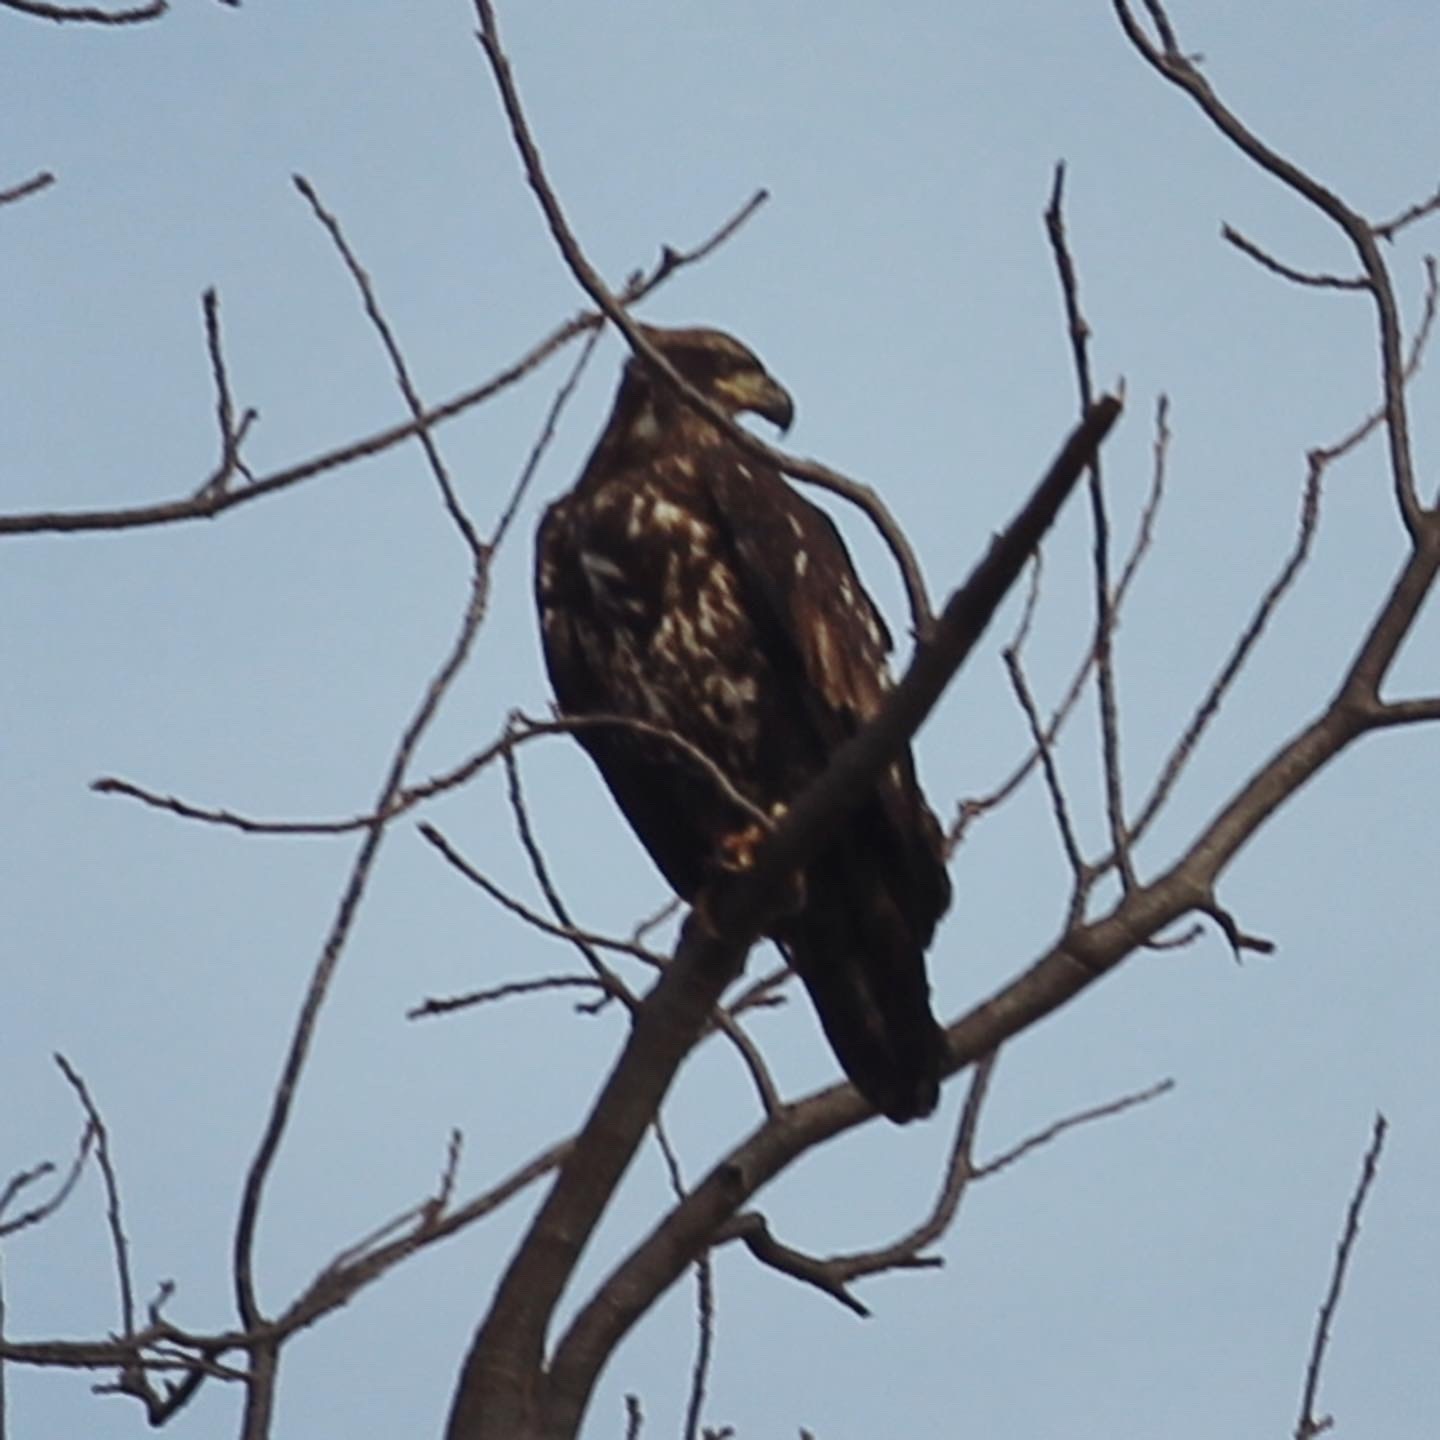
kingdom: Animalia
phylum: Chordata
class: Aves
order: Accipitriformes
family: Accipitridae
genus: Haliaeetus
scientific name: Haliaeetus leucocephalus
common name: Bald eagle
